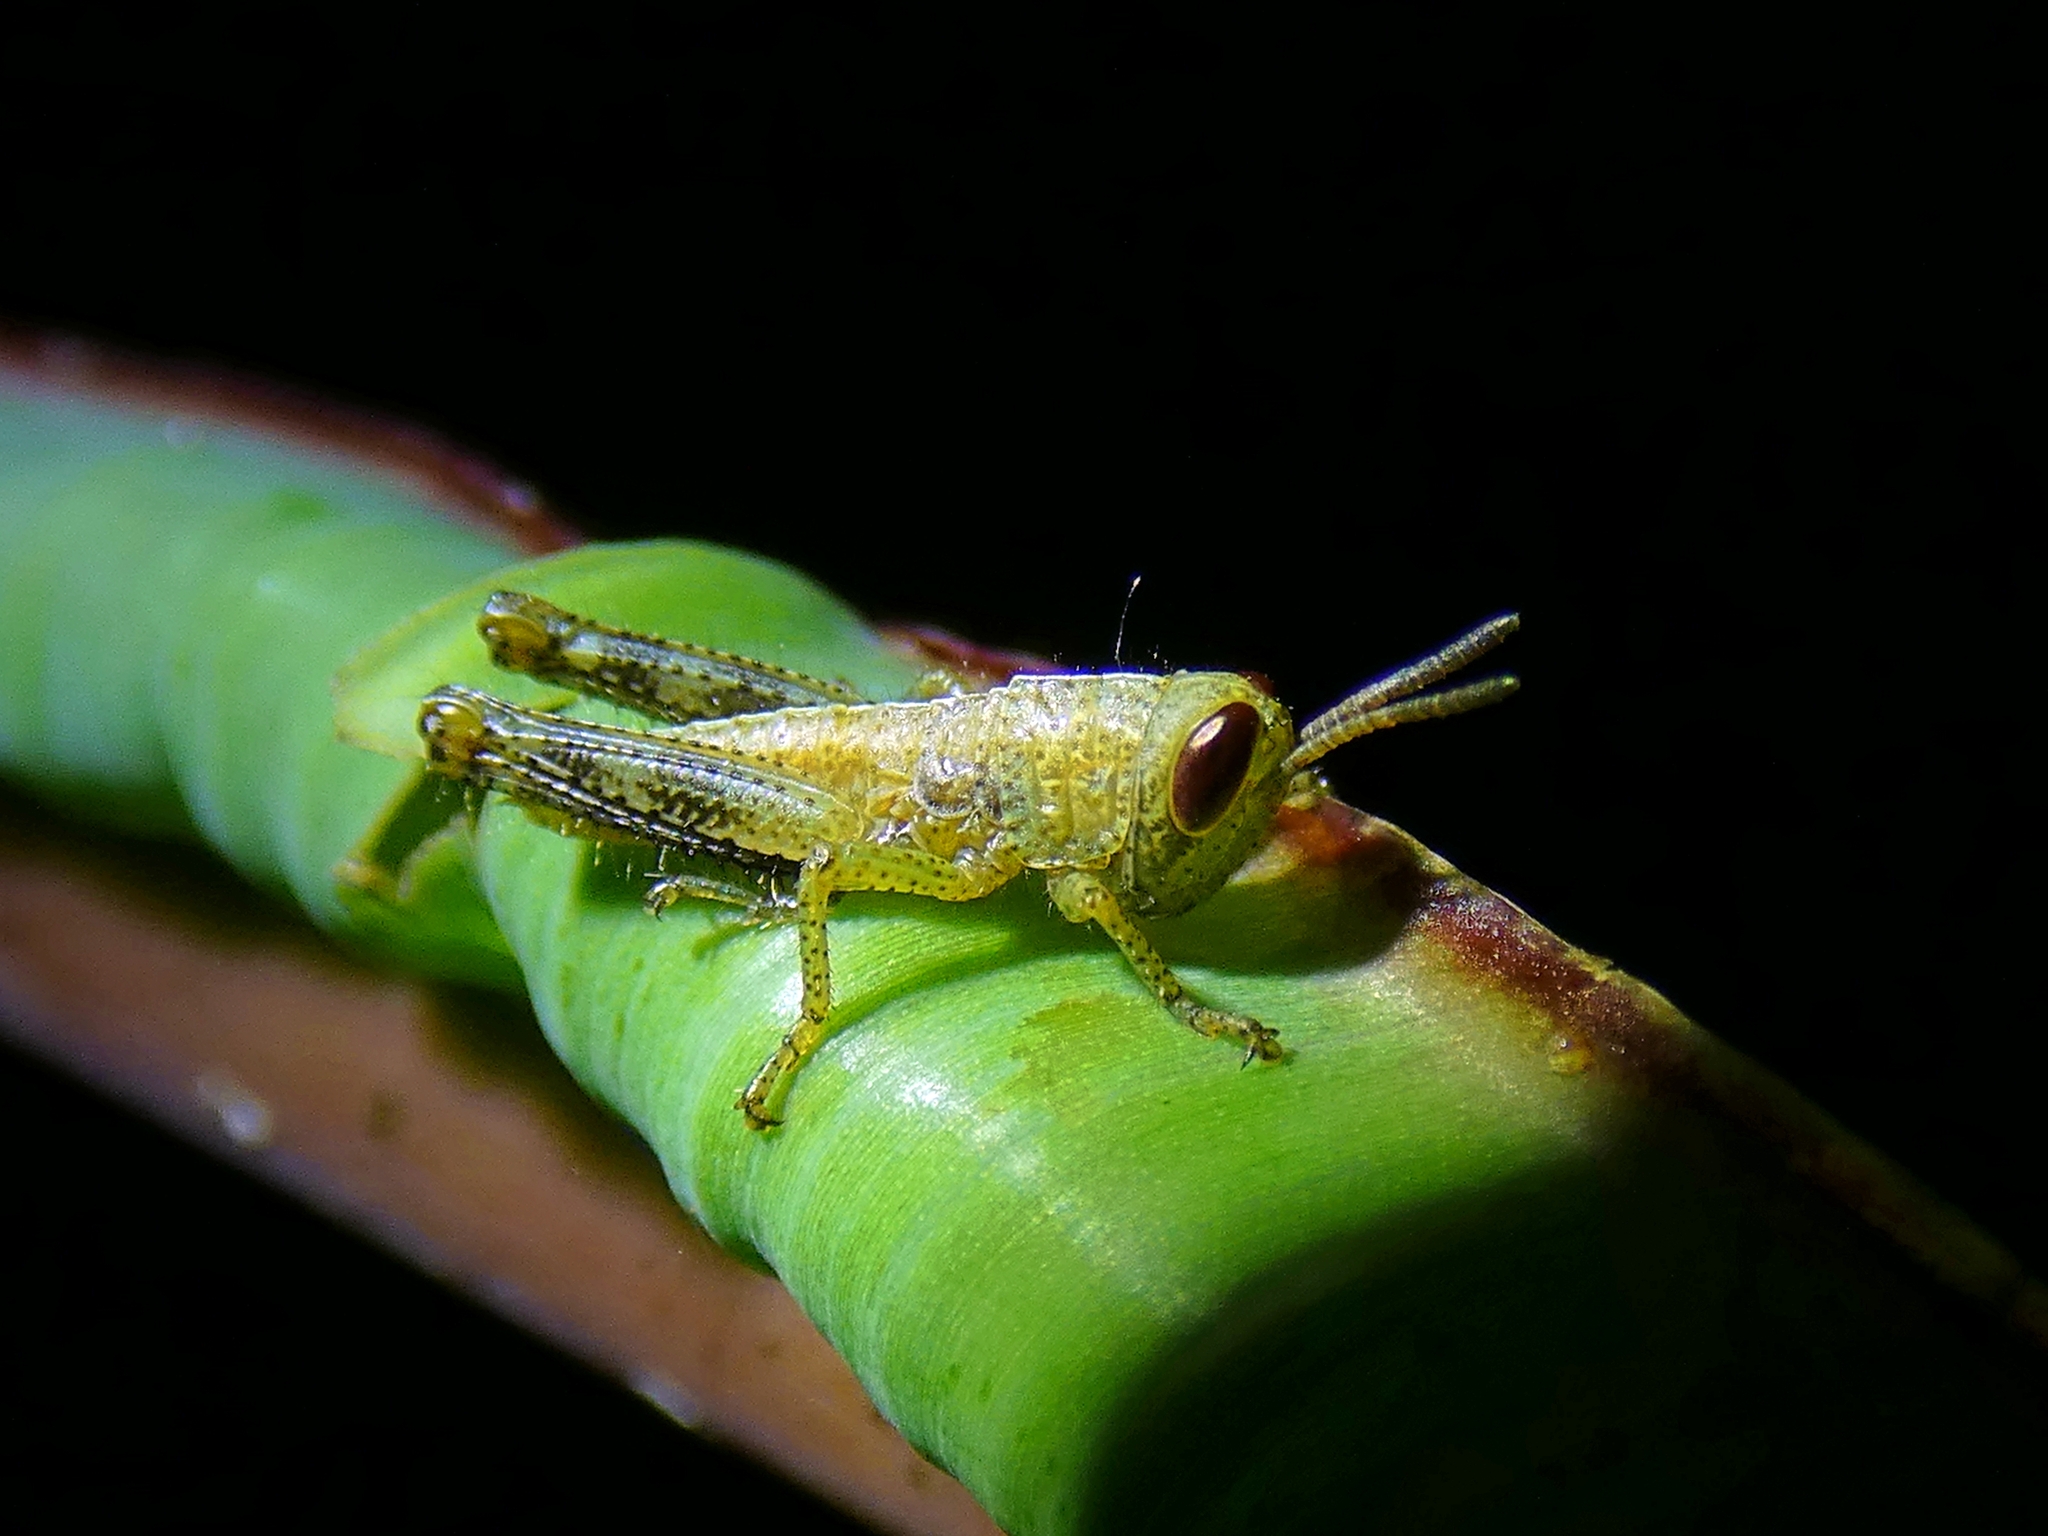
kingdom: Animalia
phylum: Arthropoda
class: Insecta
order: Orthoptera
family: Acrididae
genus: Valanga
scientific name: Valanga irregularis
